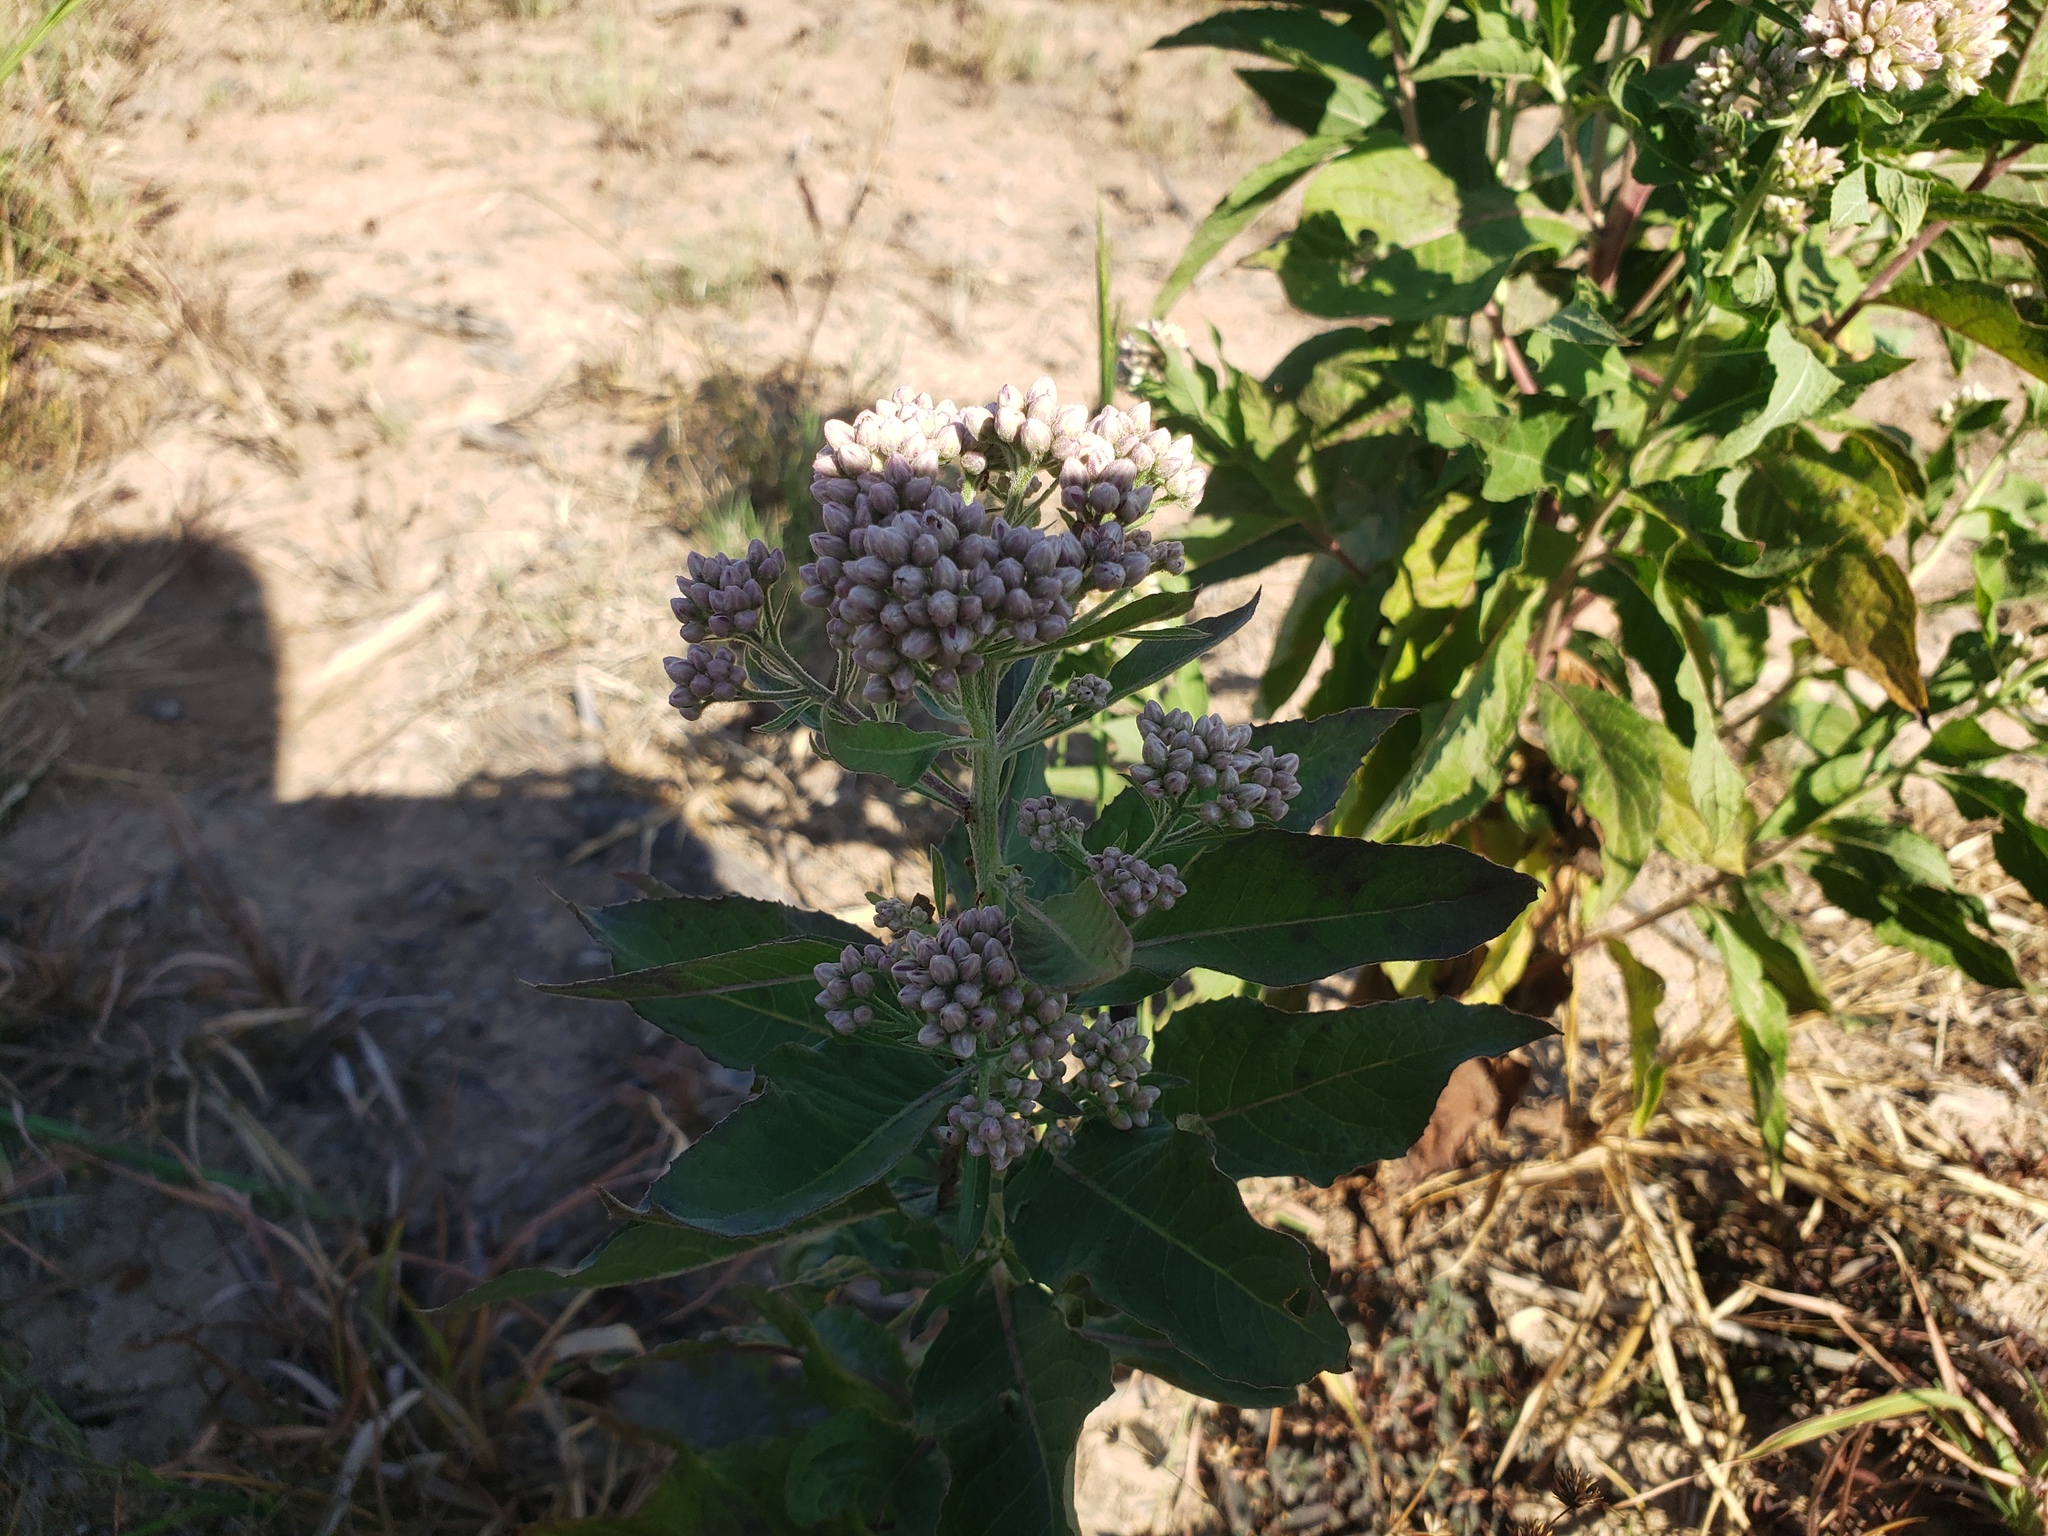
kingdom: Plantae
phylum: Tracheophyta
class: Magnoliopsida
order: Asterales
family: Asteraceae
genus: Pluchea
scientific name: Pluchea camphorata
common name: Camphor pluchea
